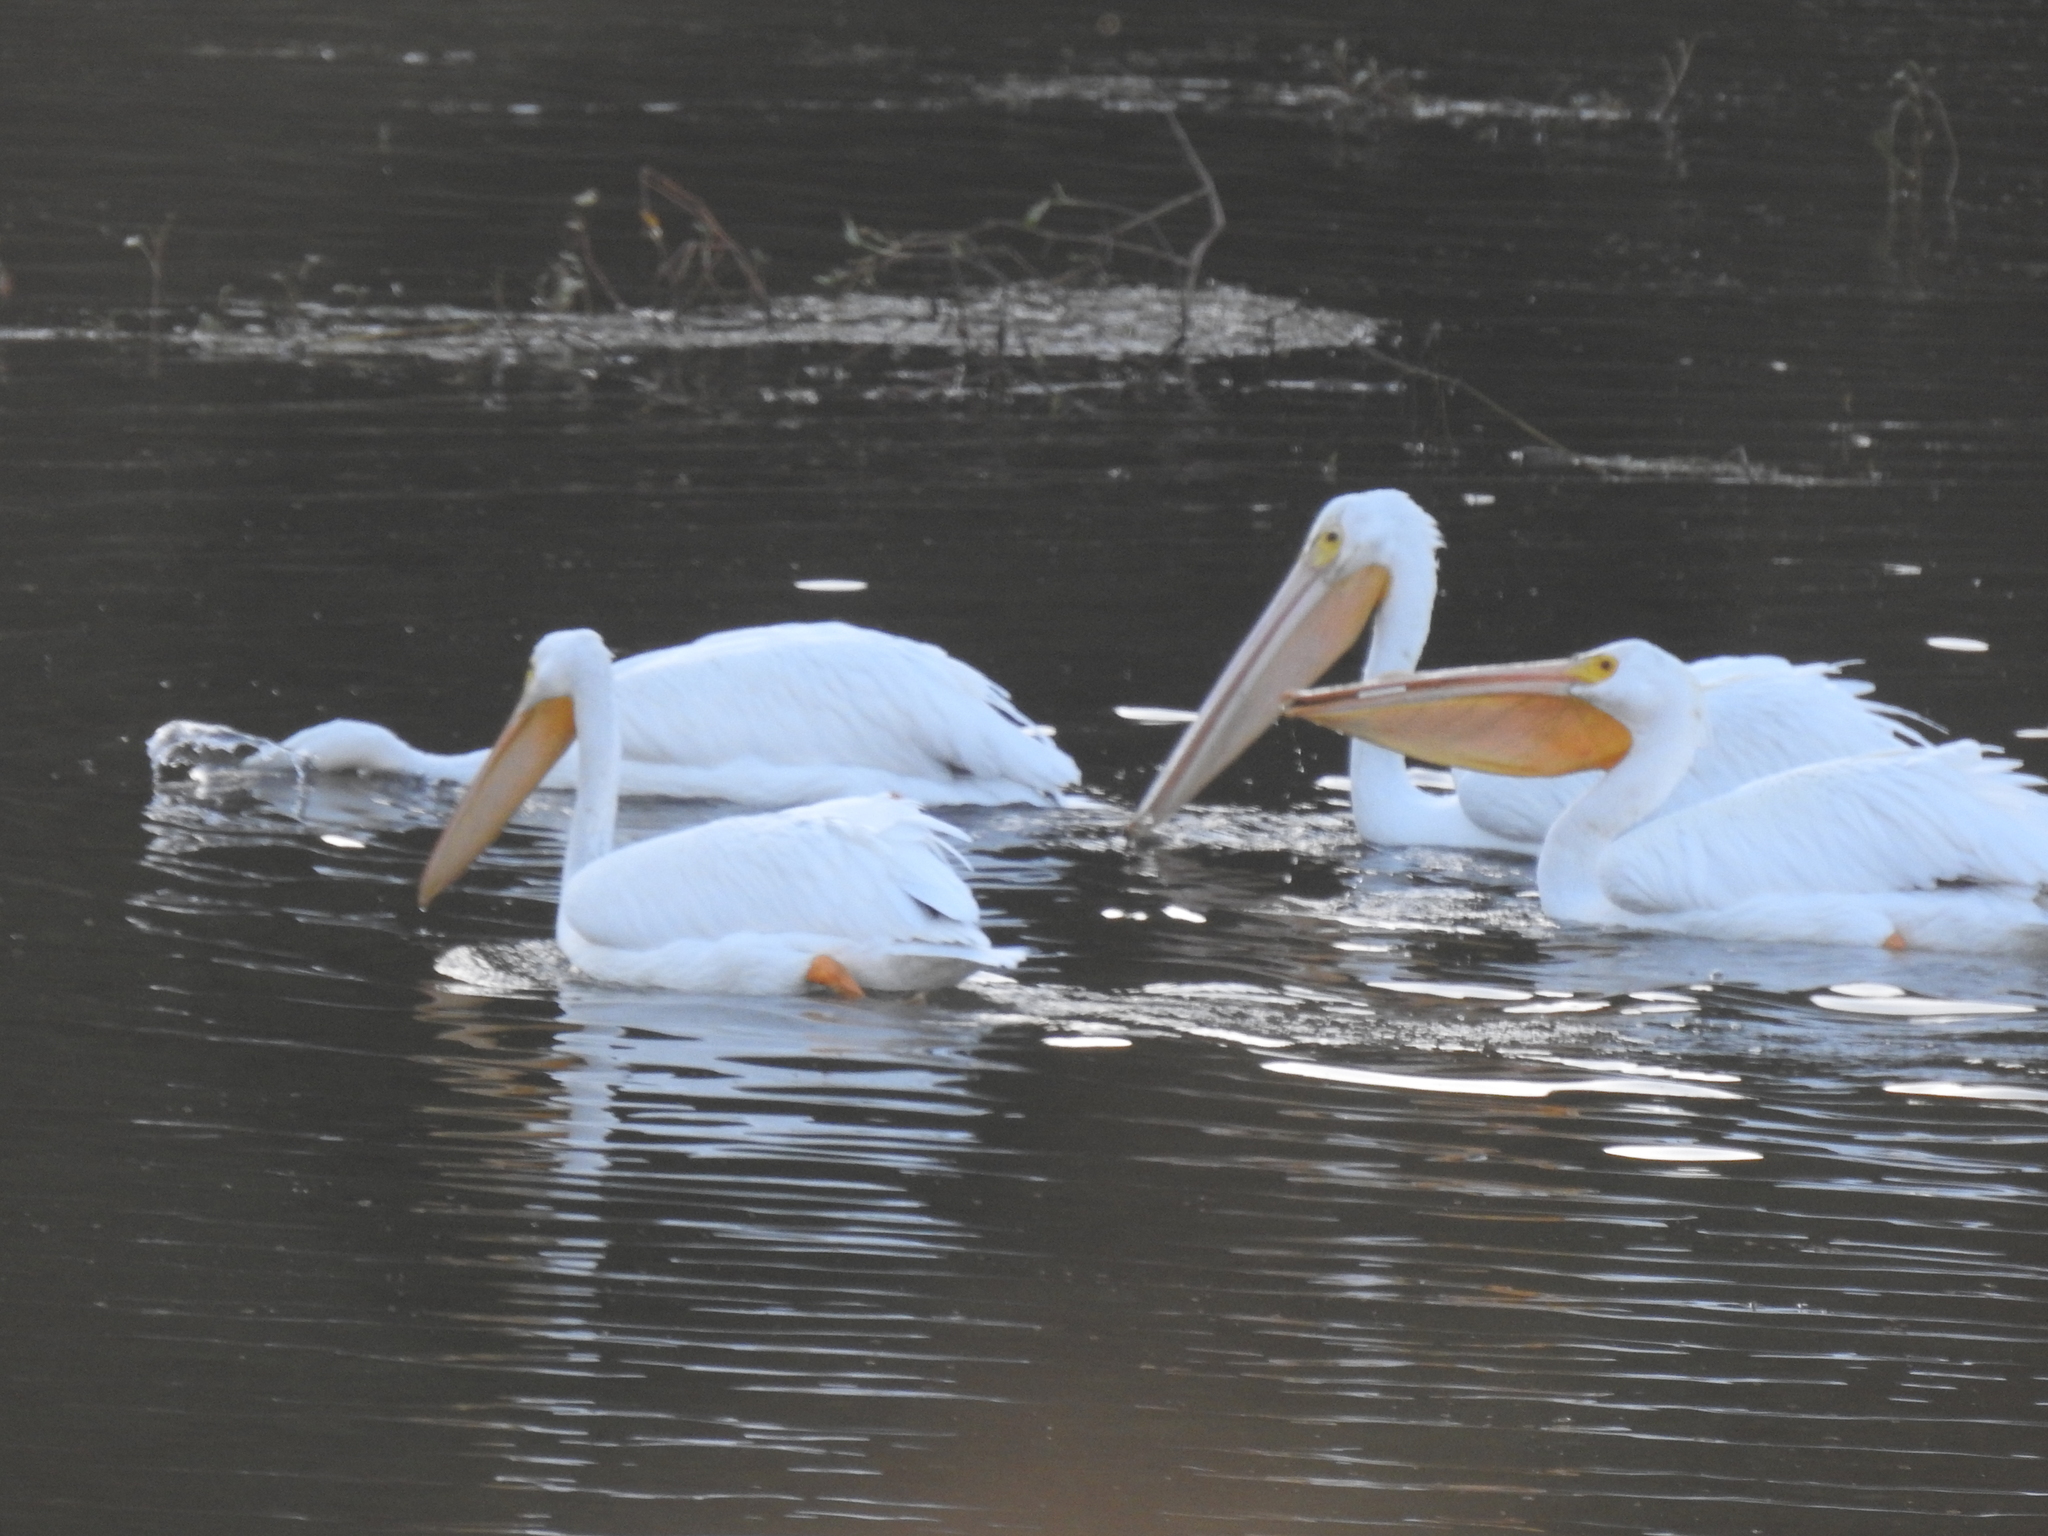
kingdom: Animalia
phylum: Chordata
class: Aves
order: Pelecaniformes
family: Pelecanidae
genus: Pelecanus
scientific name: Pelecanus erythrorhynchos
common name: American white pelican
